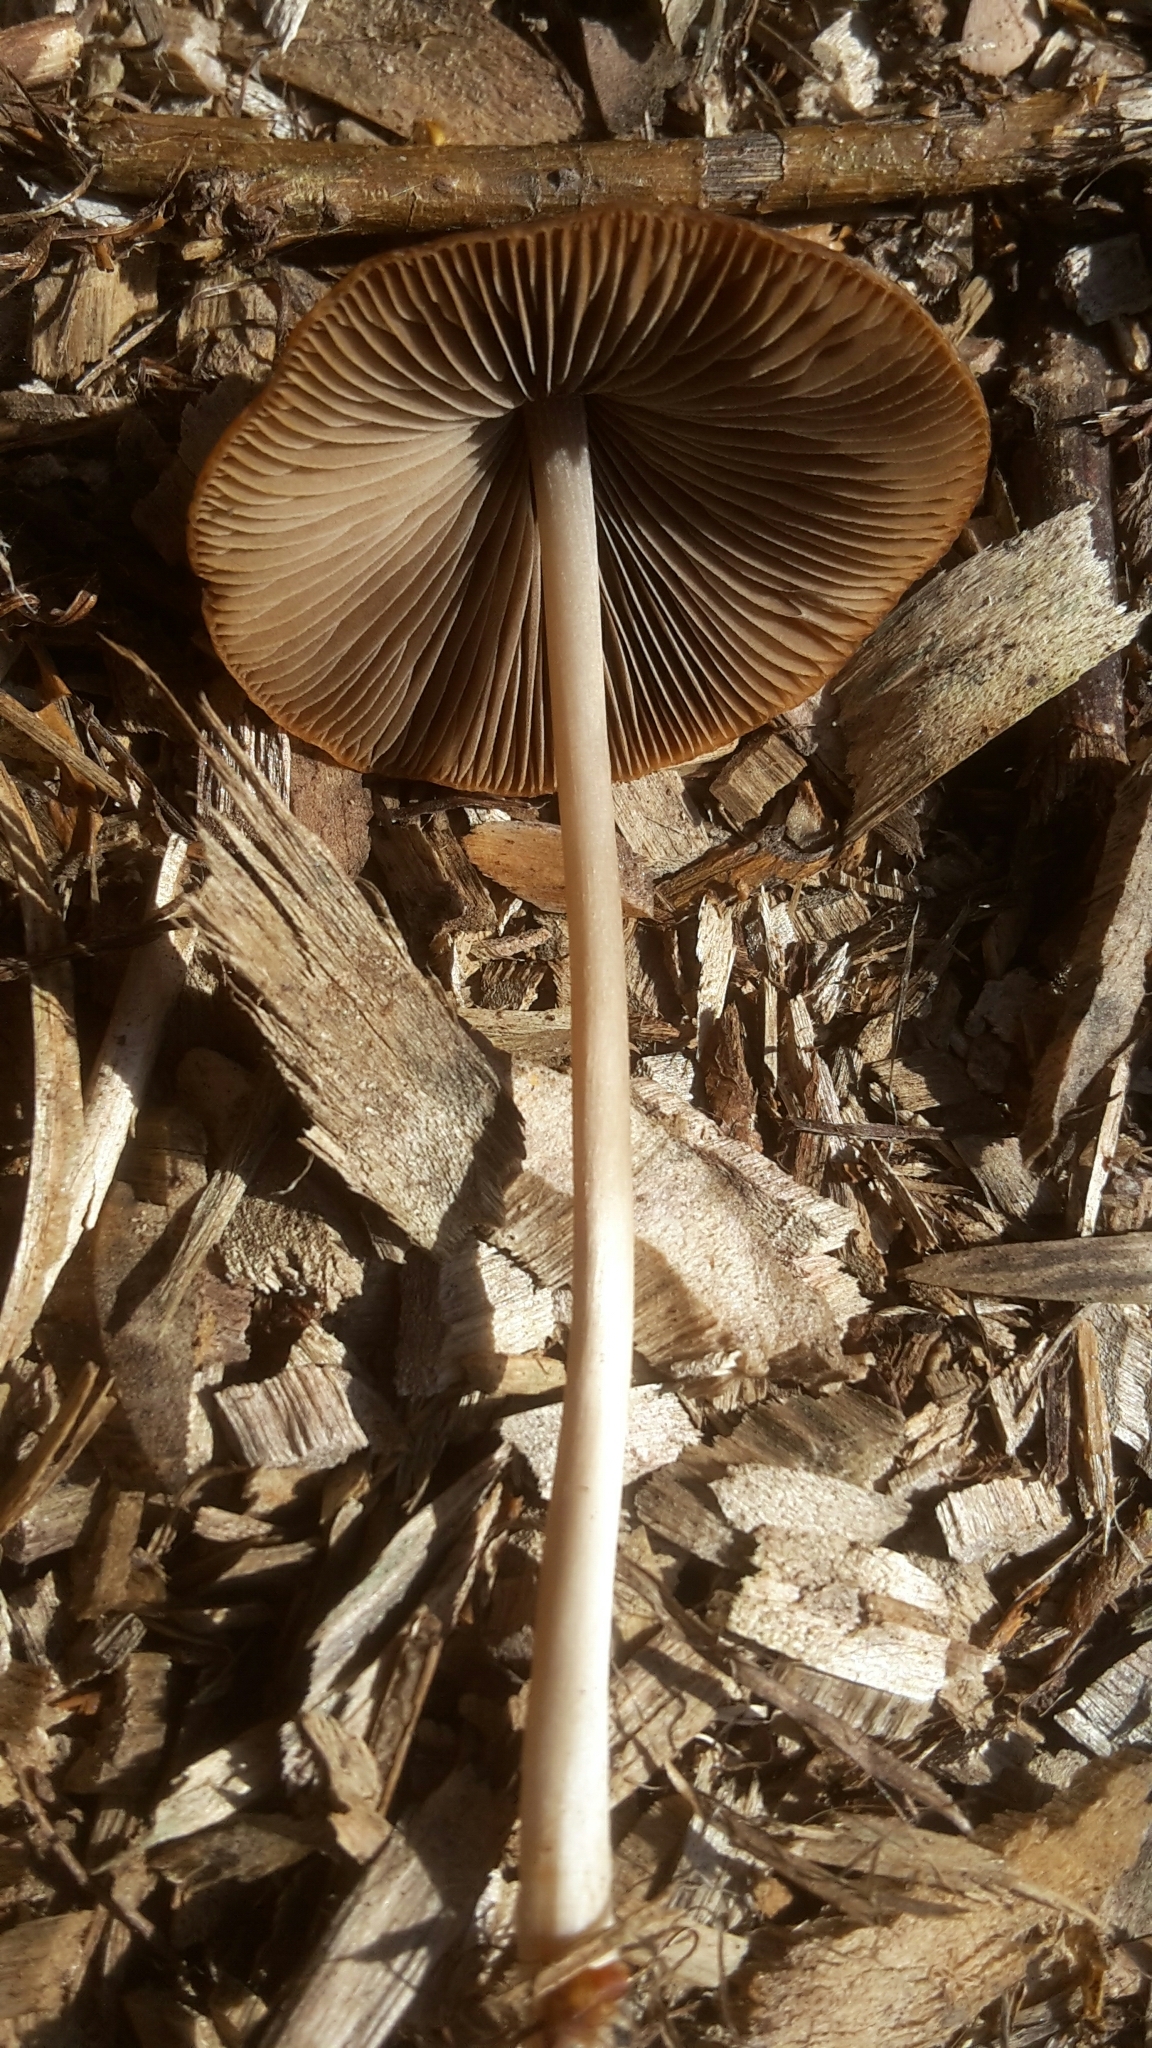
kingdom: Fungi
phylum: Basidiomycota
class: Agaricomycetes
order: Agaricales
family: Psathyrellaceae
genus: Parasola
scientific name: Parasola conopilea
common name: Conical brittlestem
